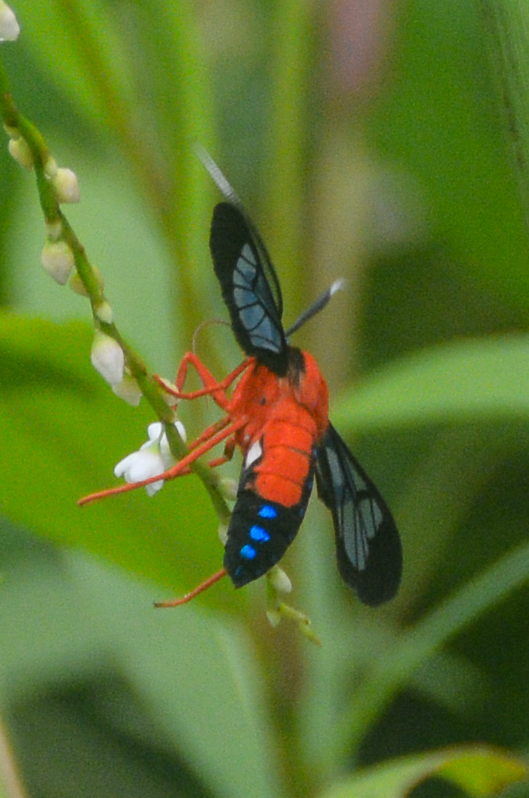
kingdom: Animalia
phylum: Arthropoda
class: Insecta
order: Lepidoptera
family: Erebidae
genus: Cosmosoma
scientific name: Cosmosoma myrodora
